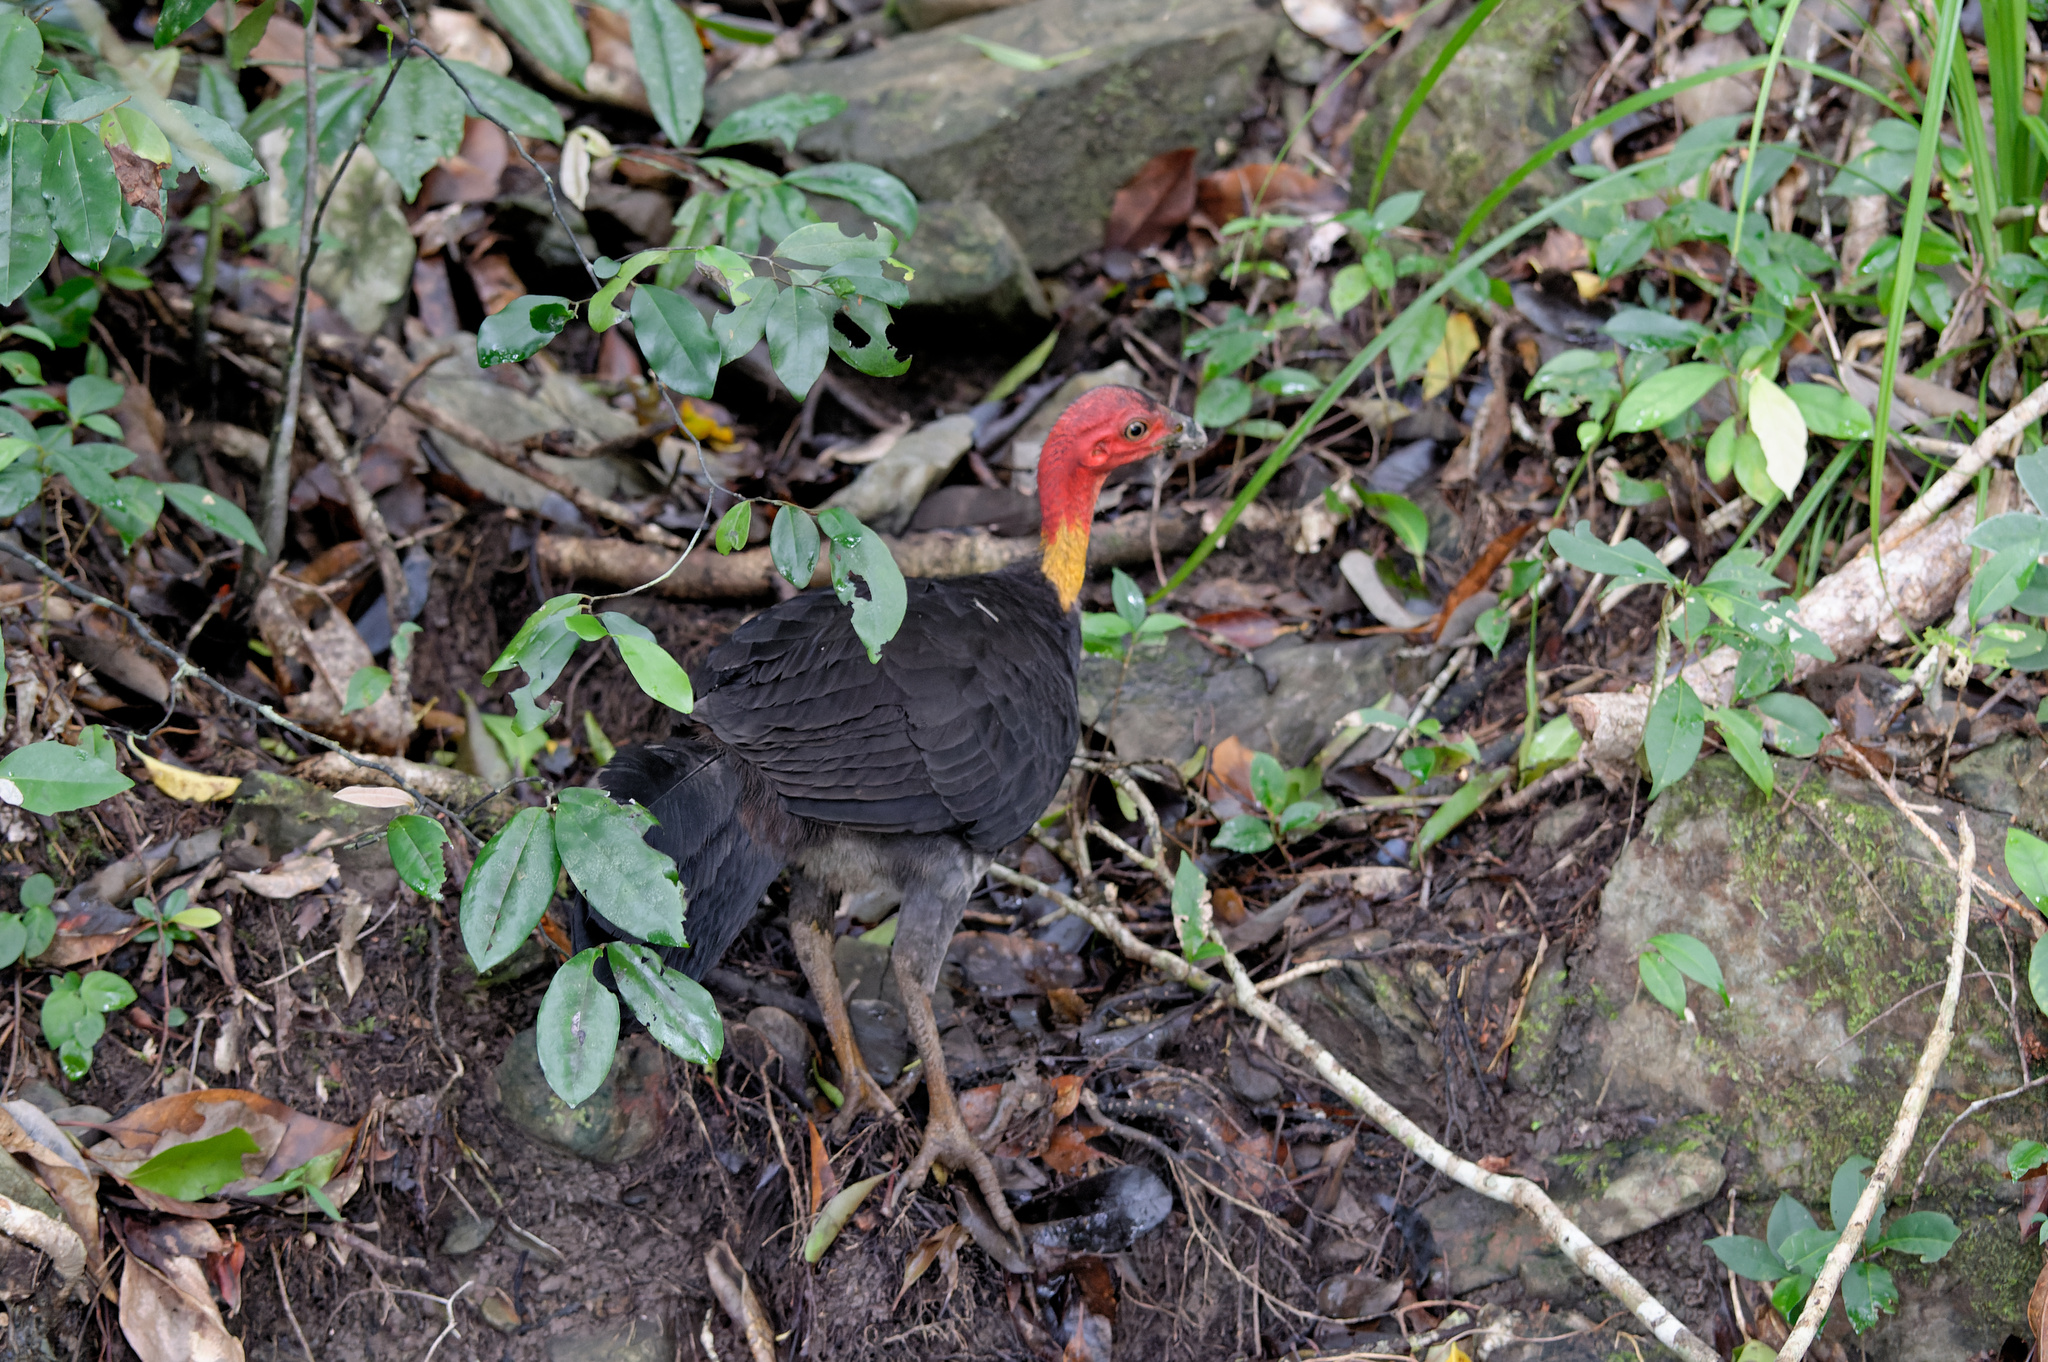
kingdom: Animalia
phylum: Chordata
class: Aves
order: Galliformes
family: Megapodiidae
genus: Alectura
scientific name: Alectura lathami
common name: Australian brushturkey
